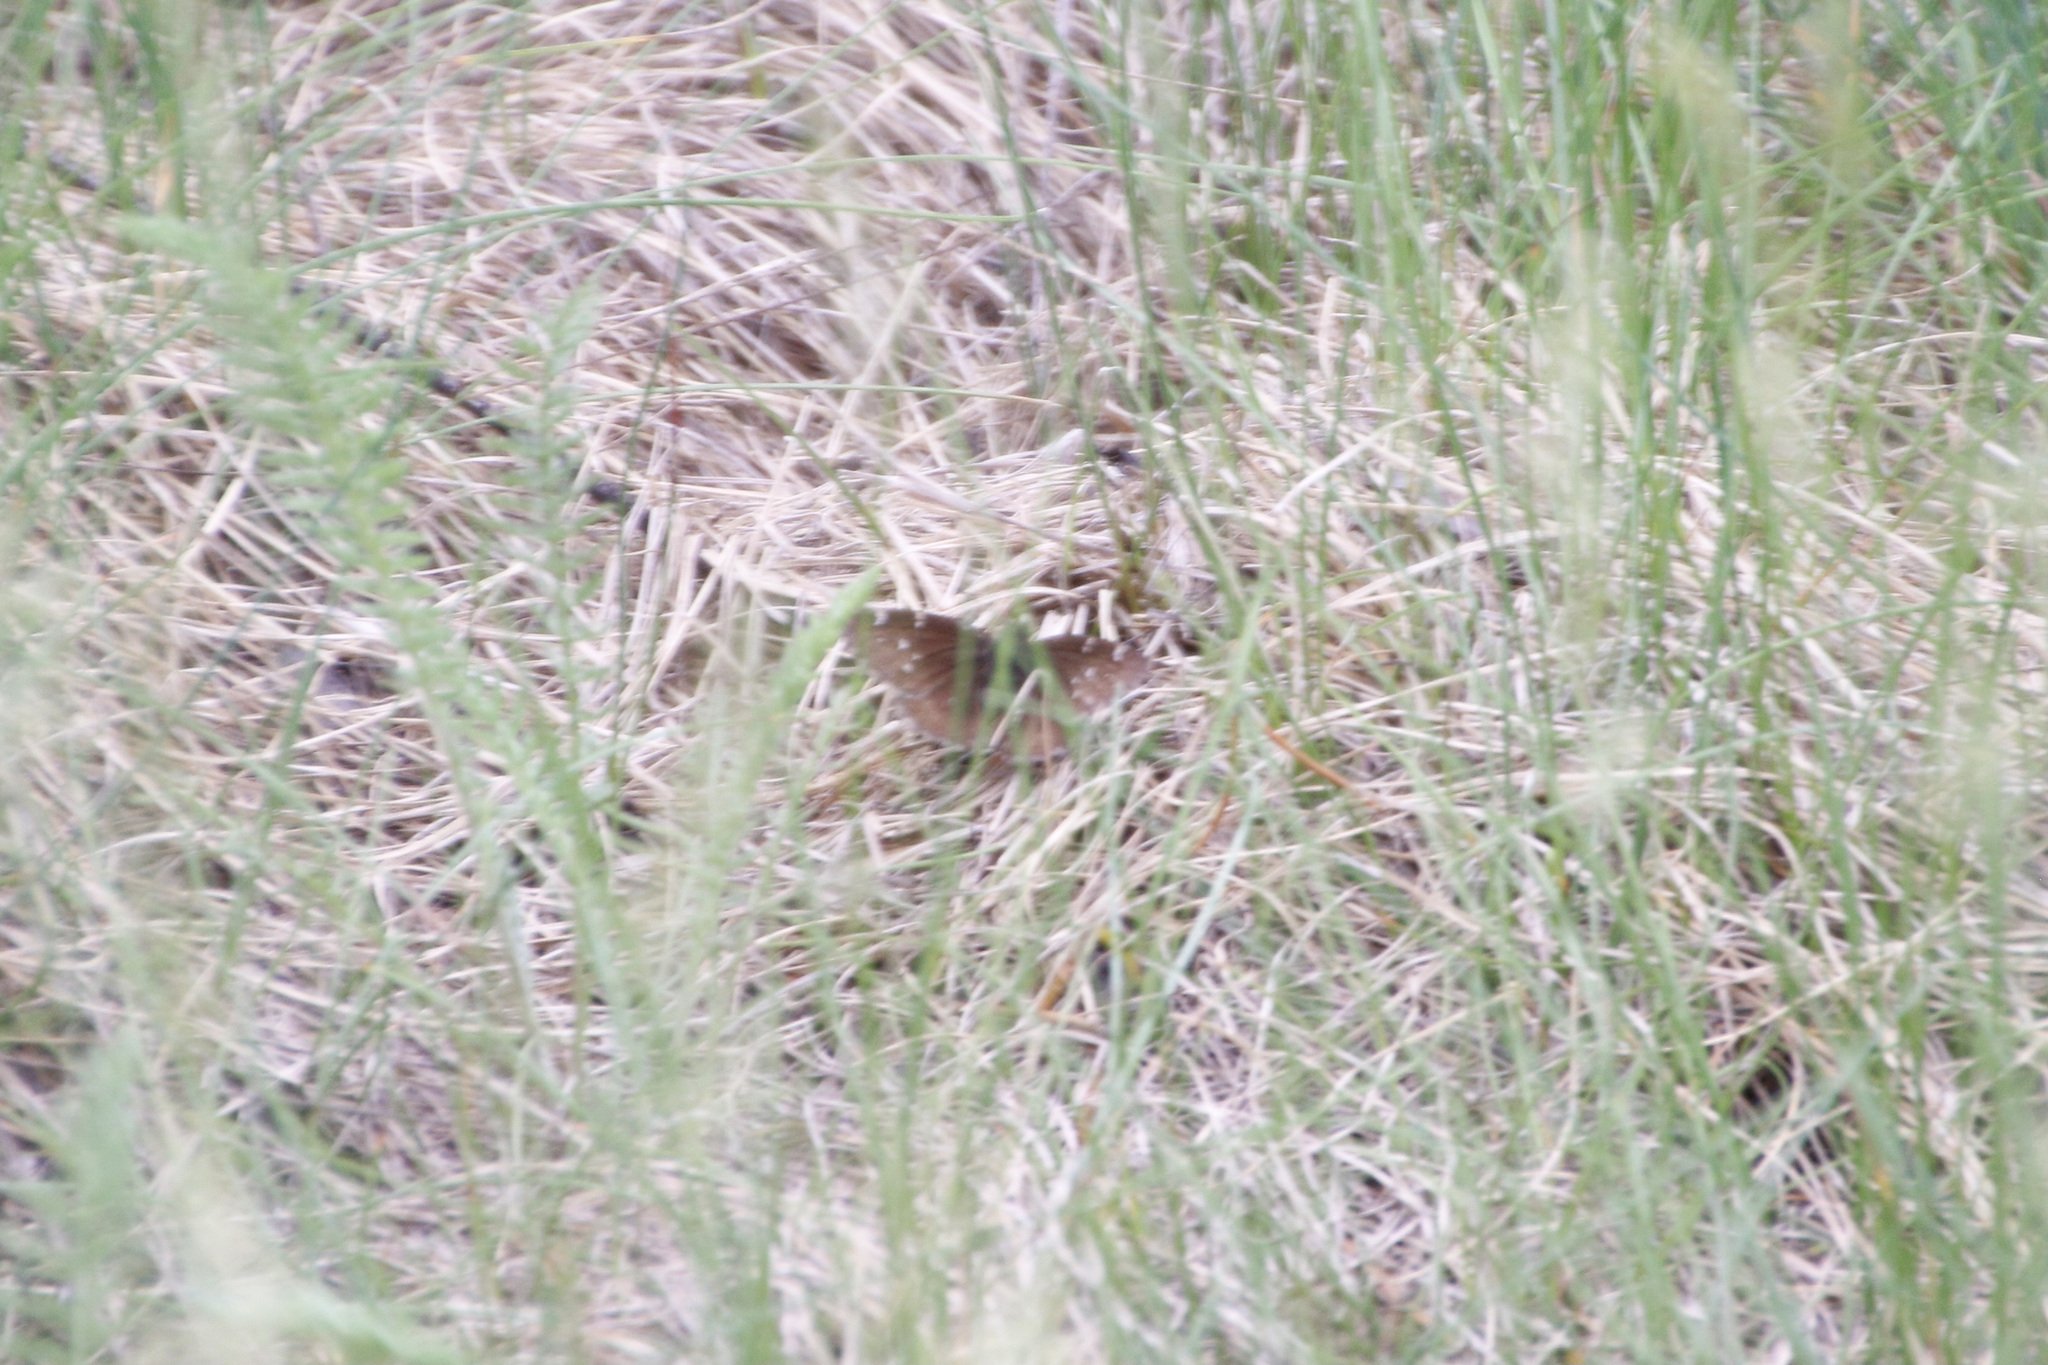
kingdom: Animalia
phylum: Arthropoda
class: Insecta
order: Lepidoptera
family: Hesperiidae
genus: Thorybes
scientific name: Thorybes pylades
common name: Northern cloudywing
